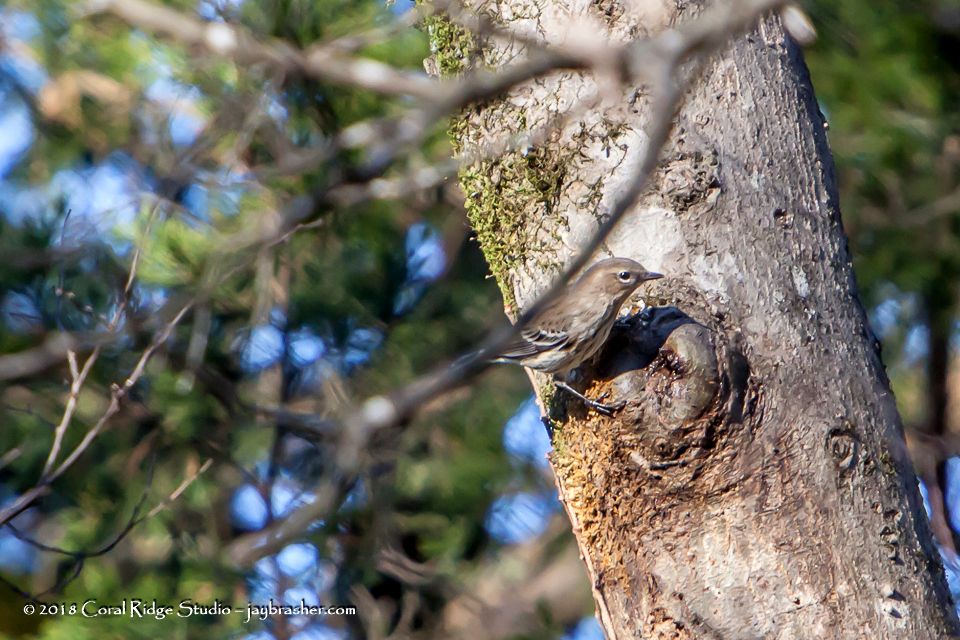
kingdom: Animalia
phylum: Chordata
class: Aves
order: Passeriformes
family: Parulidae
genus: Setophaga
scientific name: Setophaga coronata
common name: Myrtle warbler
